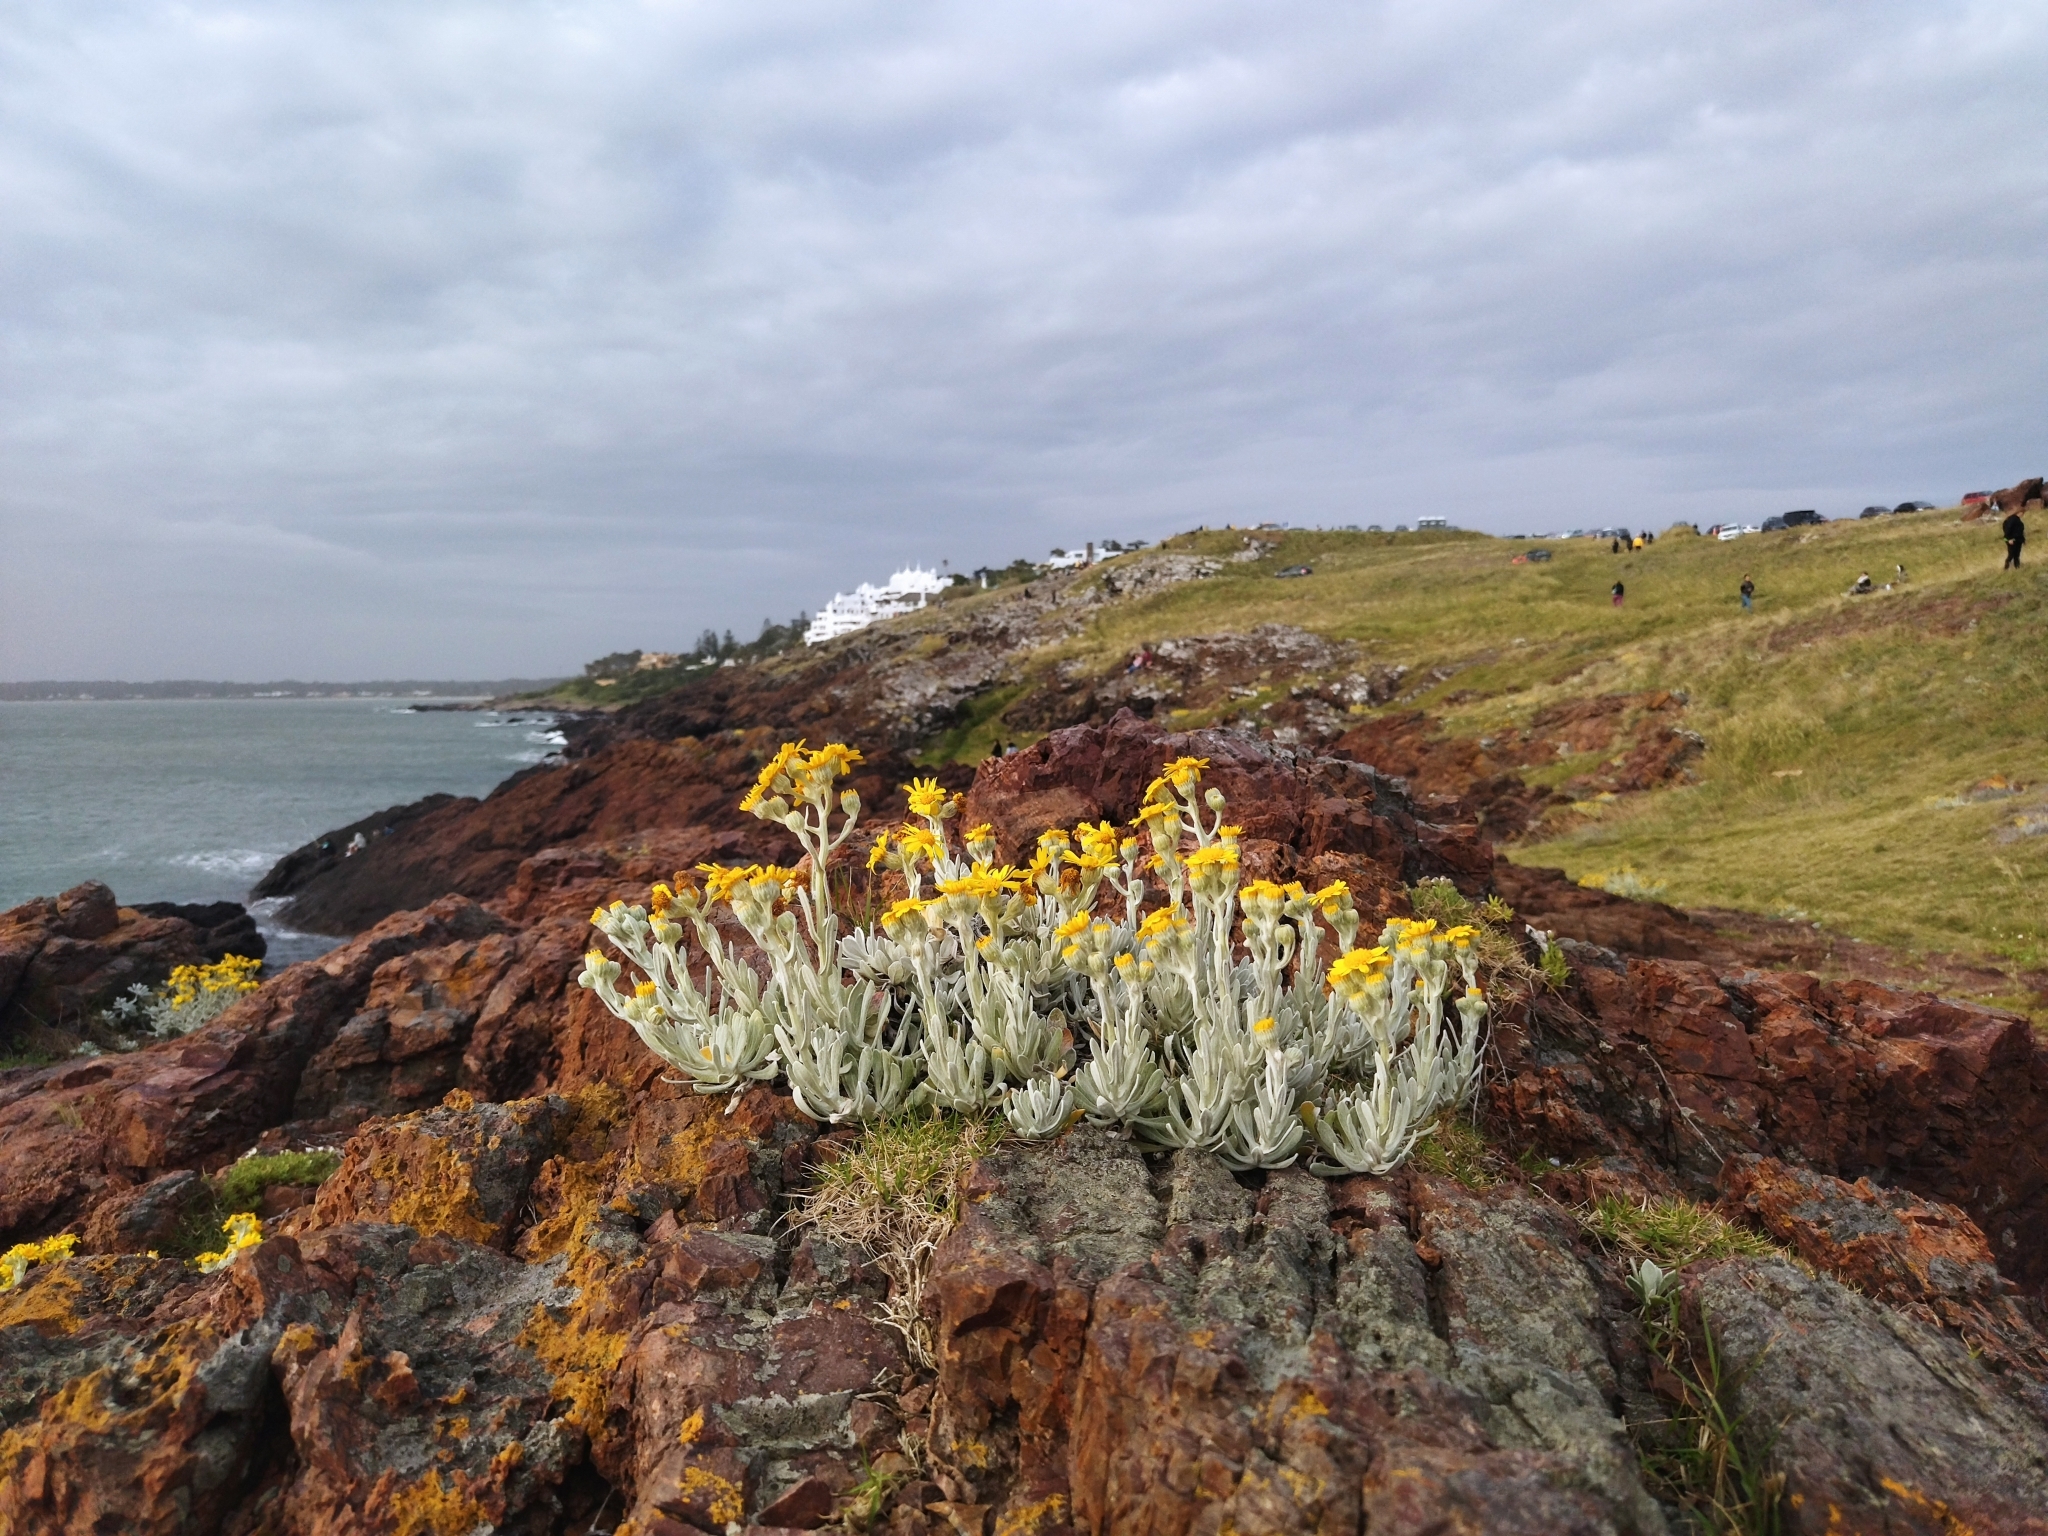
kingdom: Plantae
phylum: Tracheophyta
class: Magnoliopsida
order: Asterales
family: Asteraceae
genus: Senecio
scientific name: Senecio ostenii
